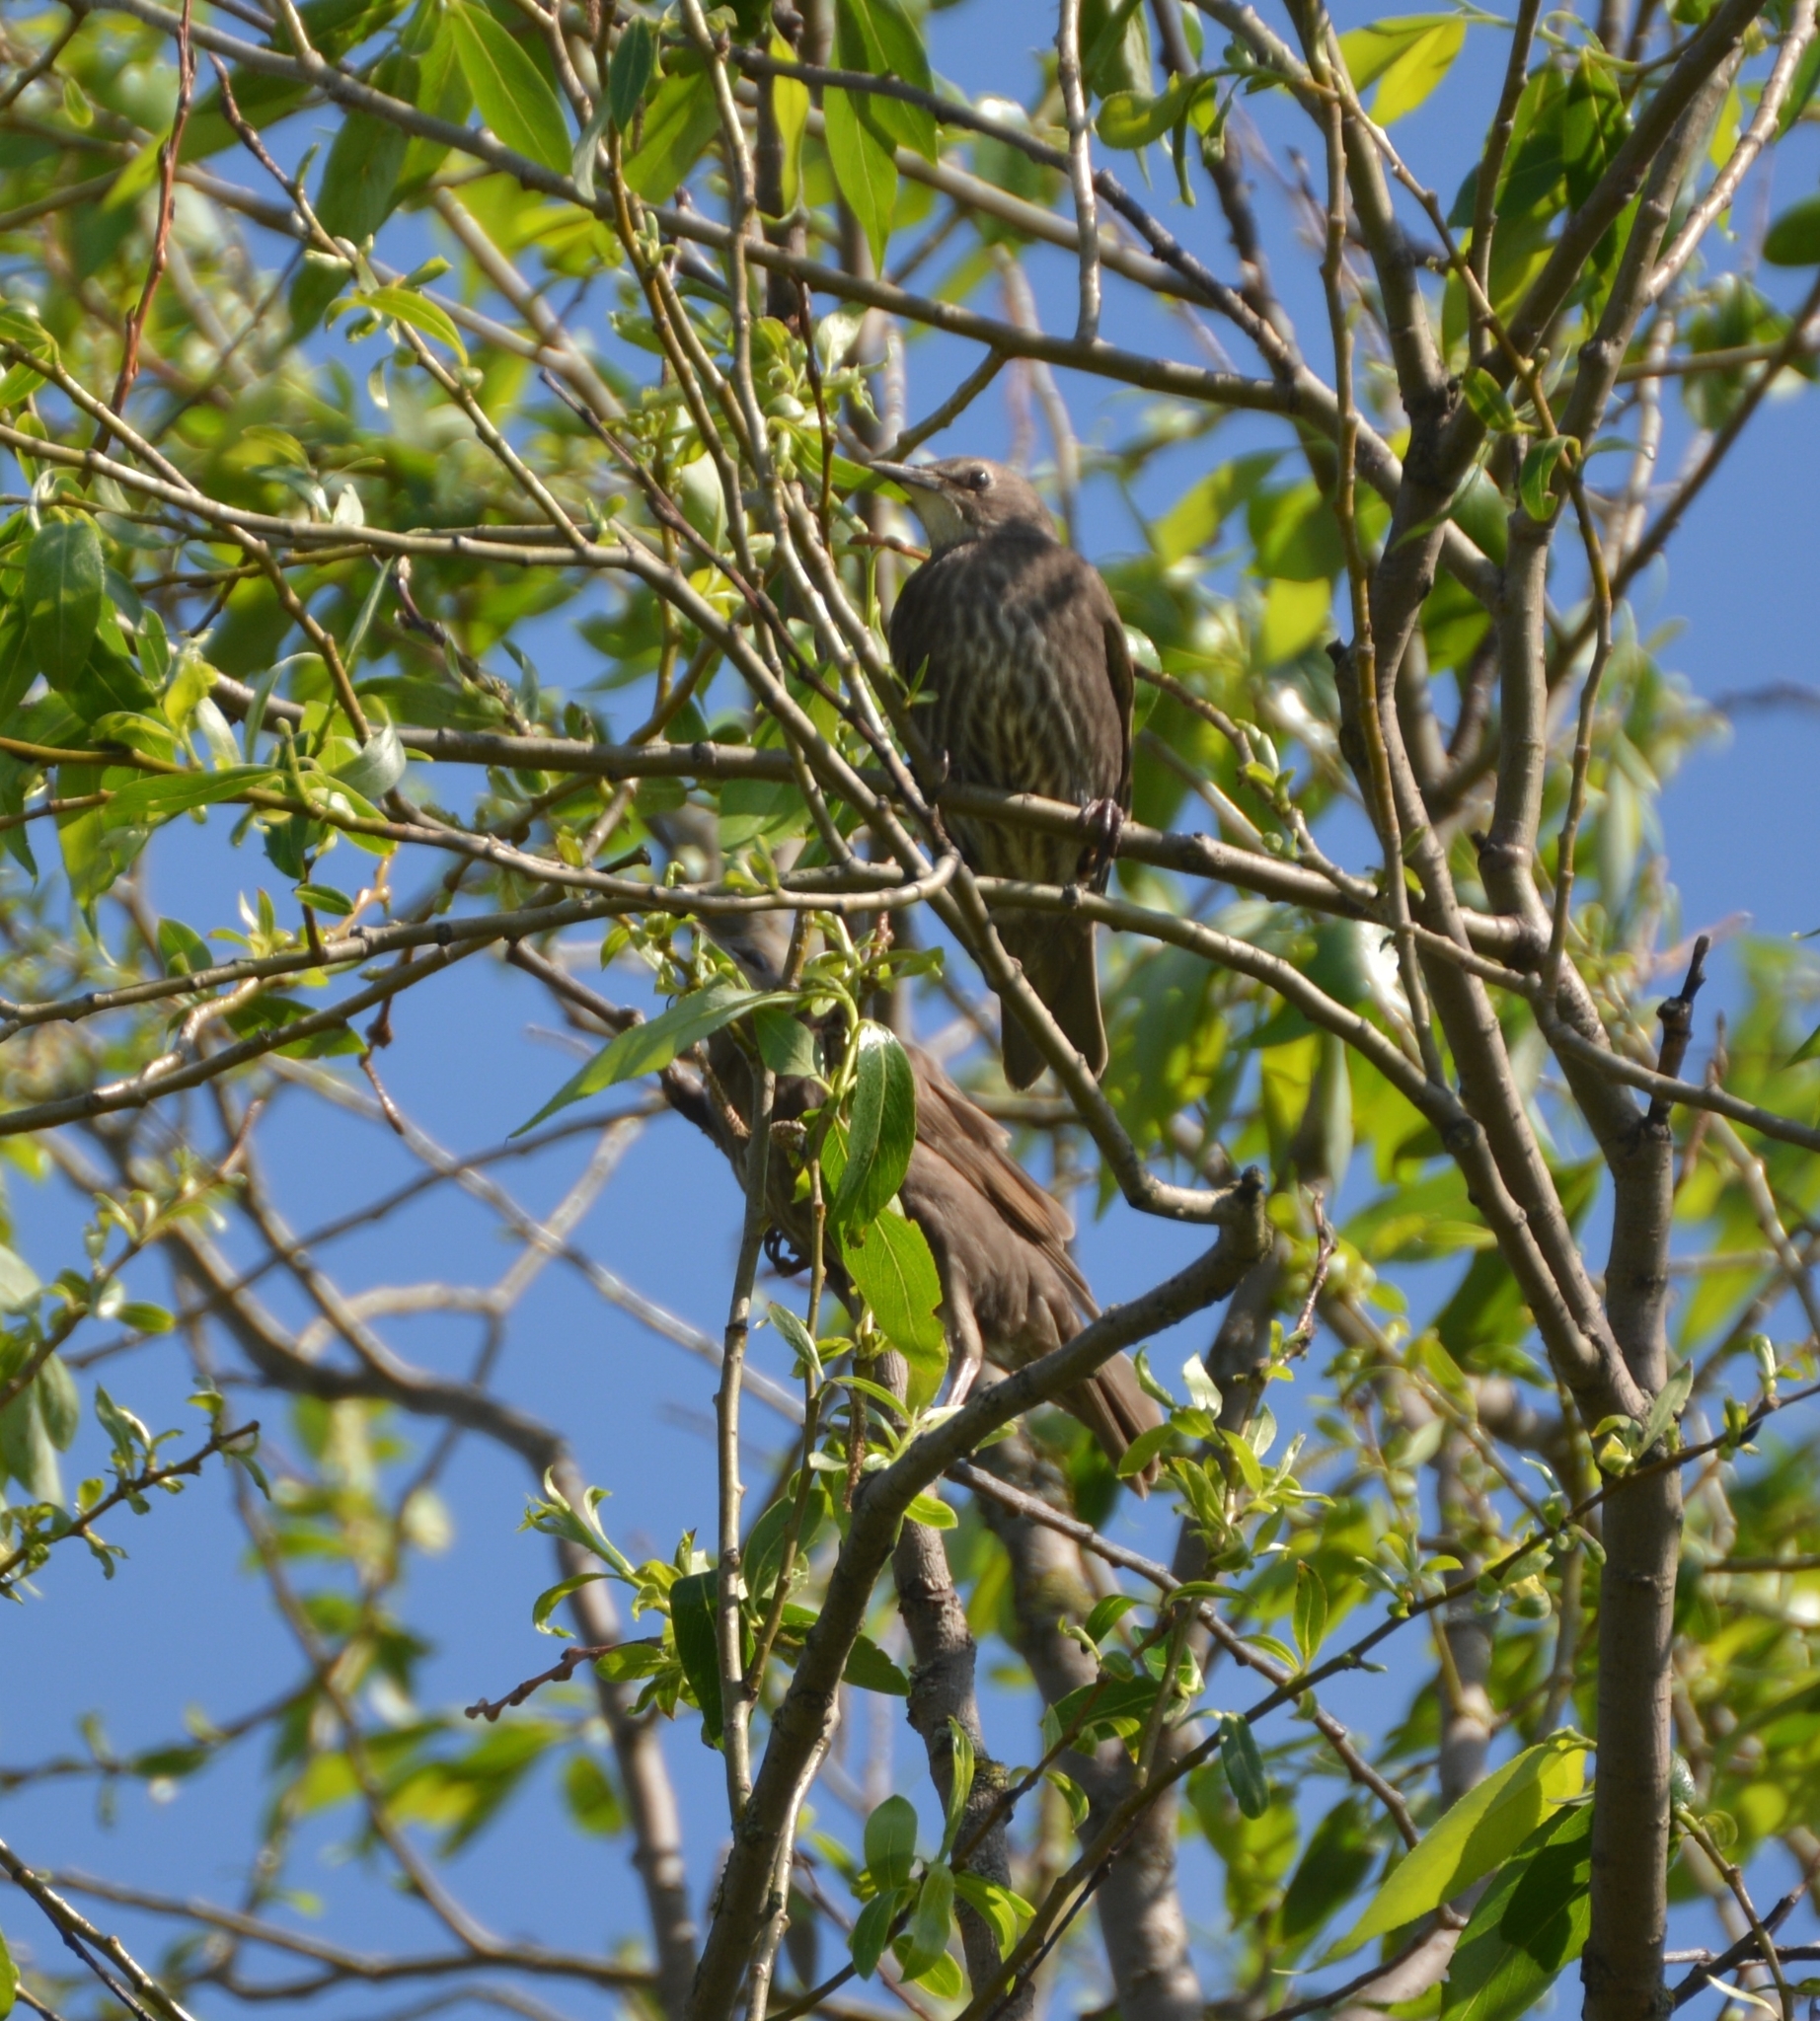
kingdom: Animalia
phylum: Chordata
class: Aves
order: Passeriformes
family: Sturnidae
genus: Sturnus
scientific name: Sturnus vulgaris
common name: Common starling
